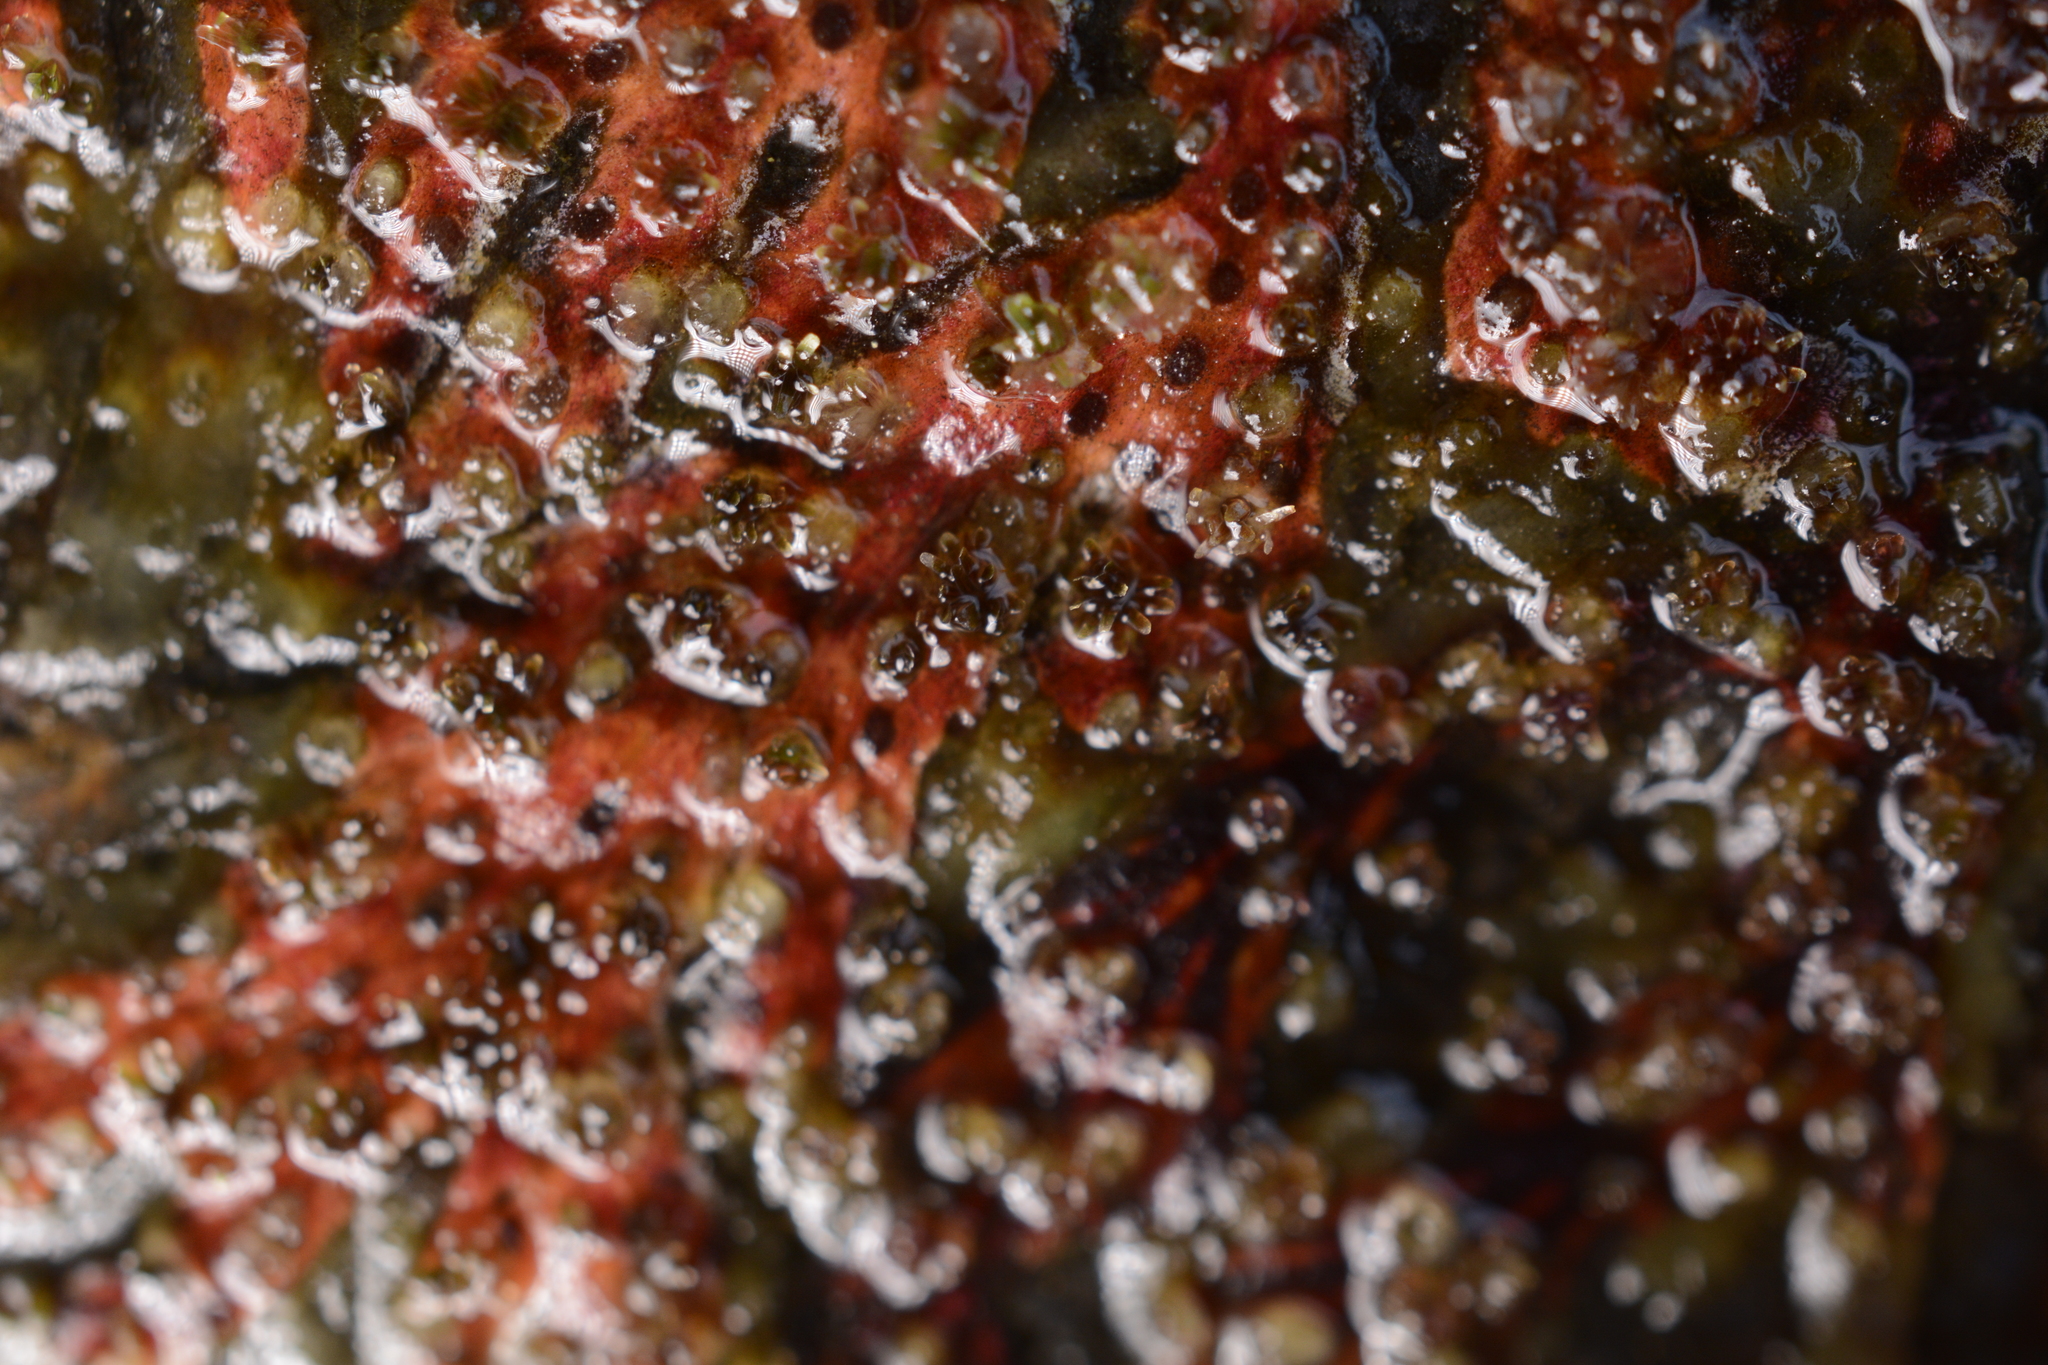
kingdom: Plantae
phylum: Tracheophyta
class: Magnoliopsida
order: Malpighiales
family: Podostemaceae
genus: Dalzellia
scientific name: Dalzellia ceylanica
